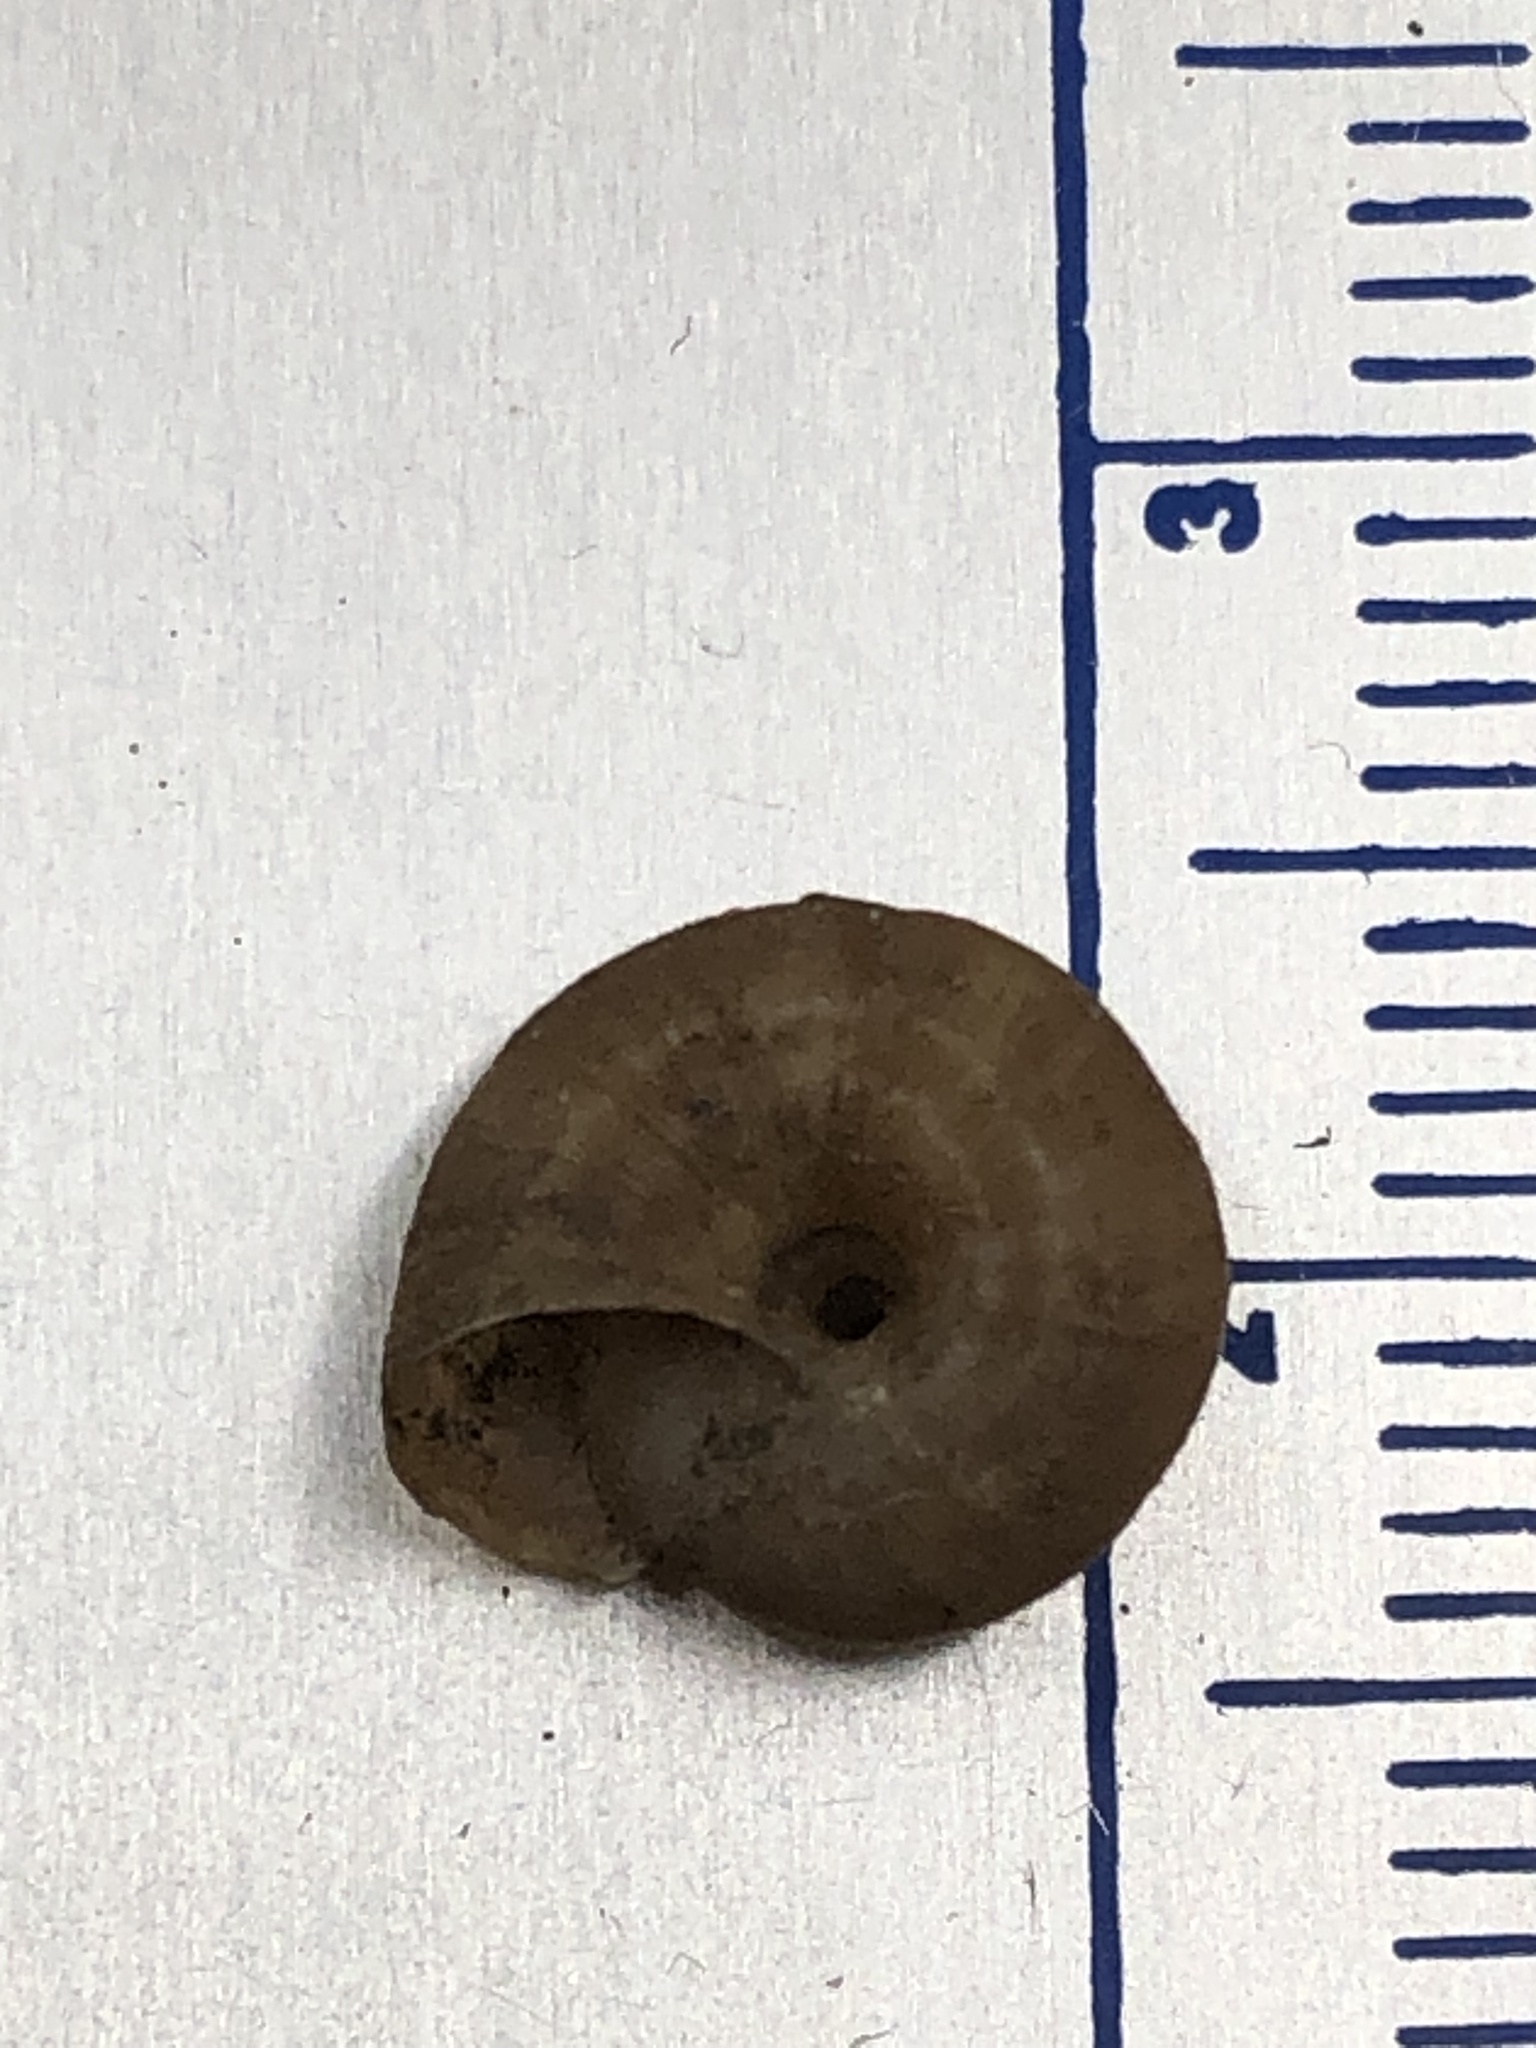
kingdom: Animalia
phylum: Mollusca
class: Gastropoda
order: Stylommatophora
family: Hygromiidae
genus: Trochulus
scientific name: Trochulus hispidus
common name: Hairy snail
